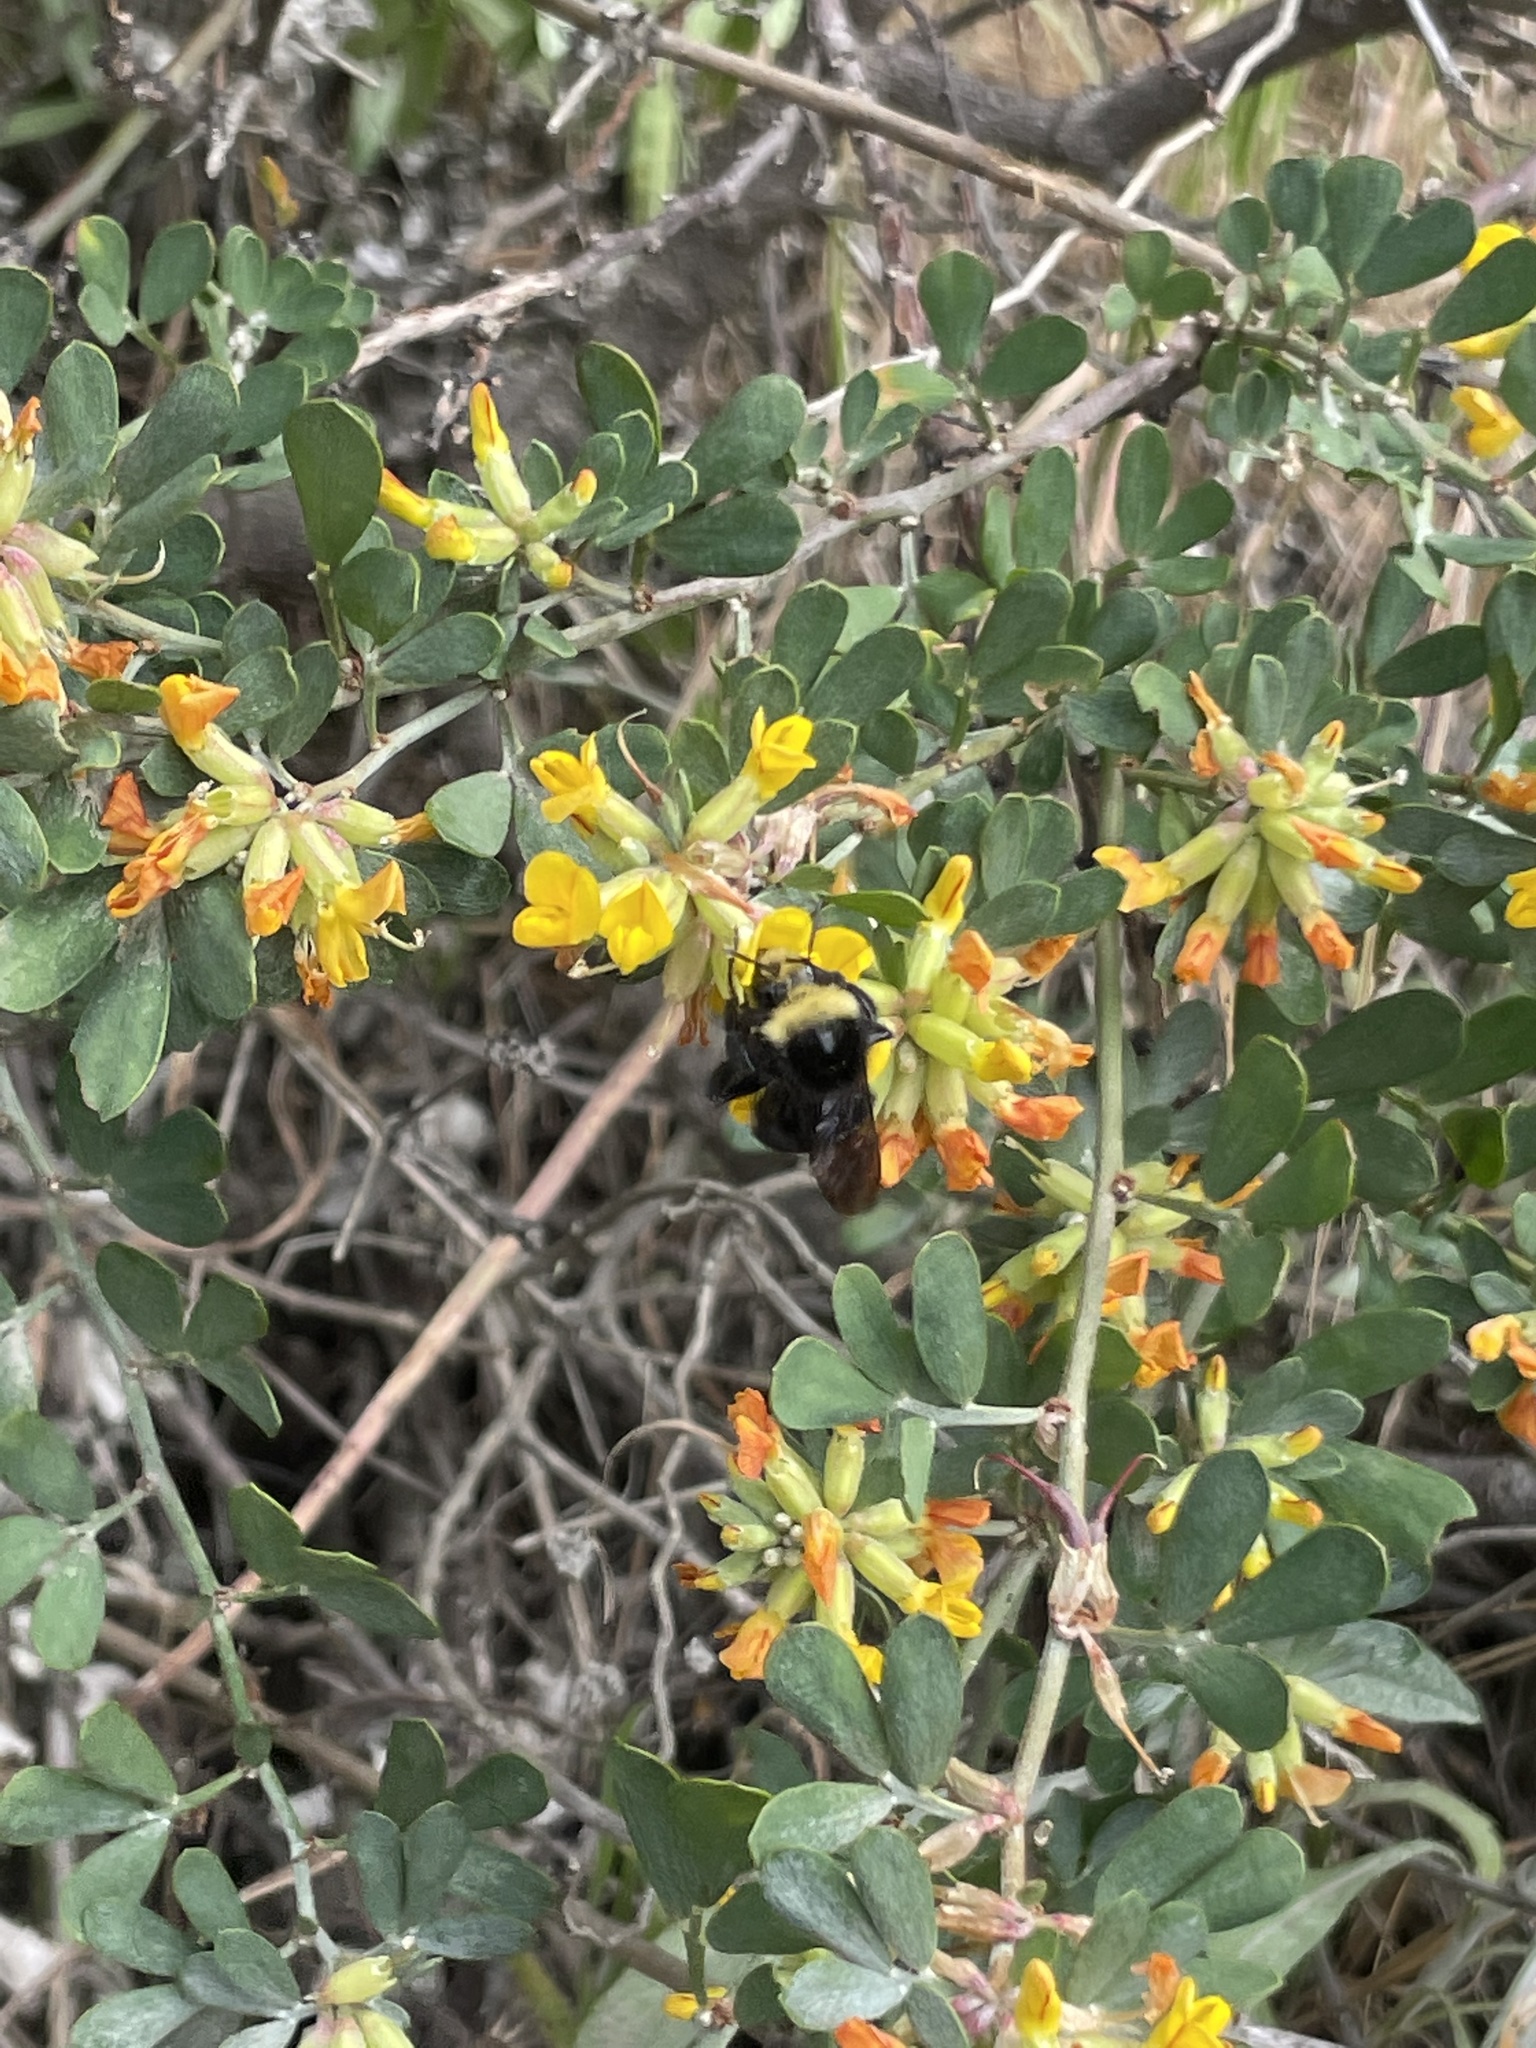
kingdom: Animalia
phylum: Arthropoda
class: Insecta
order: Hymenoptera
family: Apidae
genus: Bombus
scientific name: Bombus vosnesenskii
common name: Vosnesensky bumble bee
